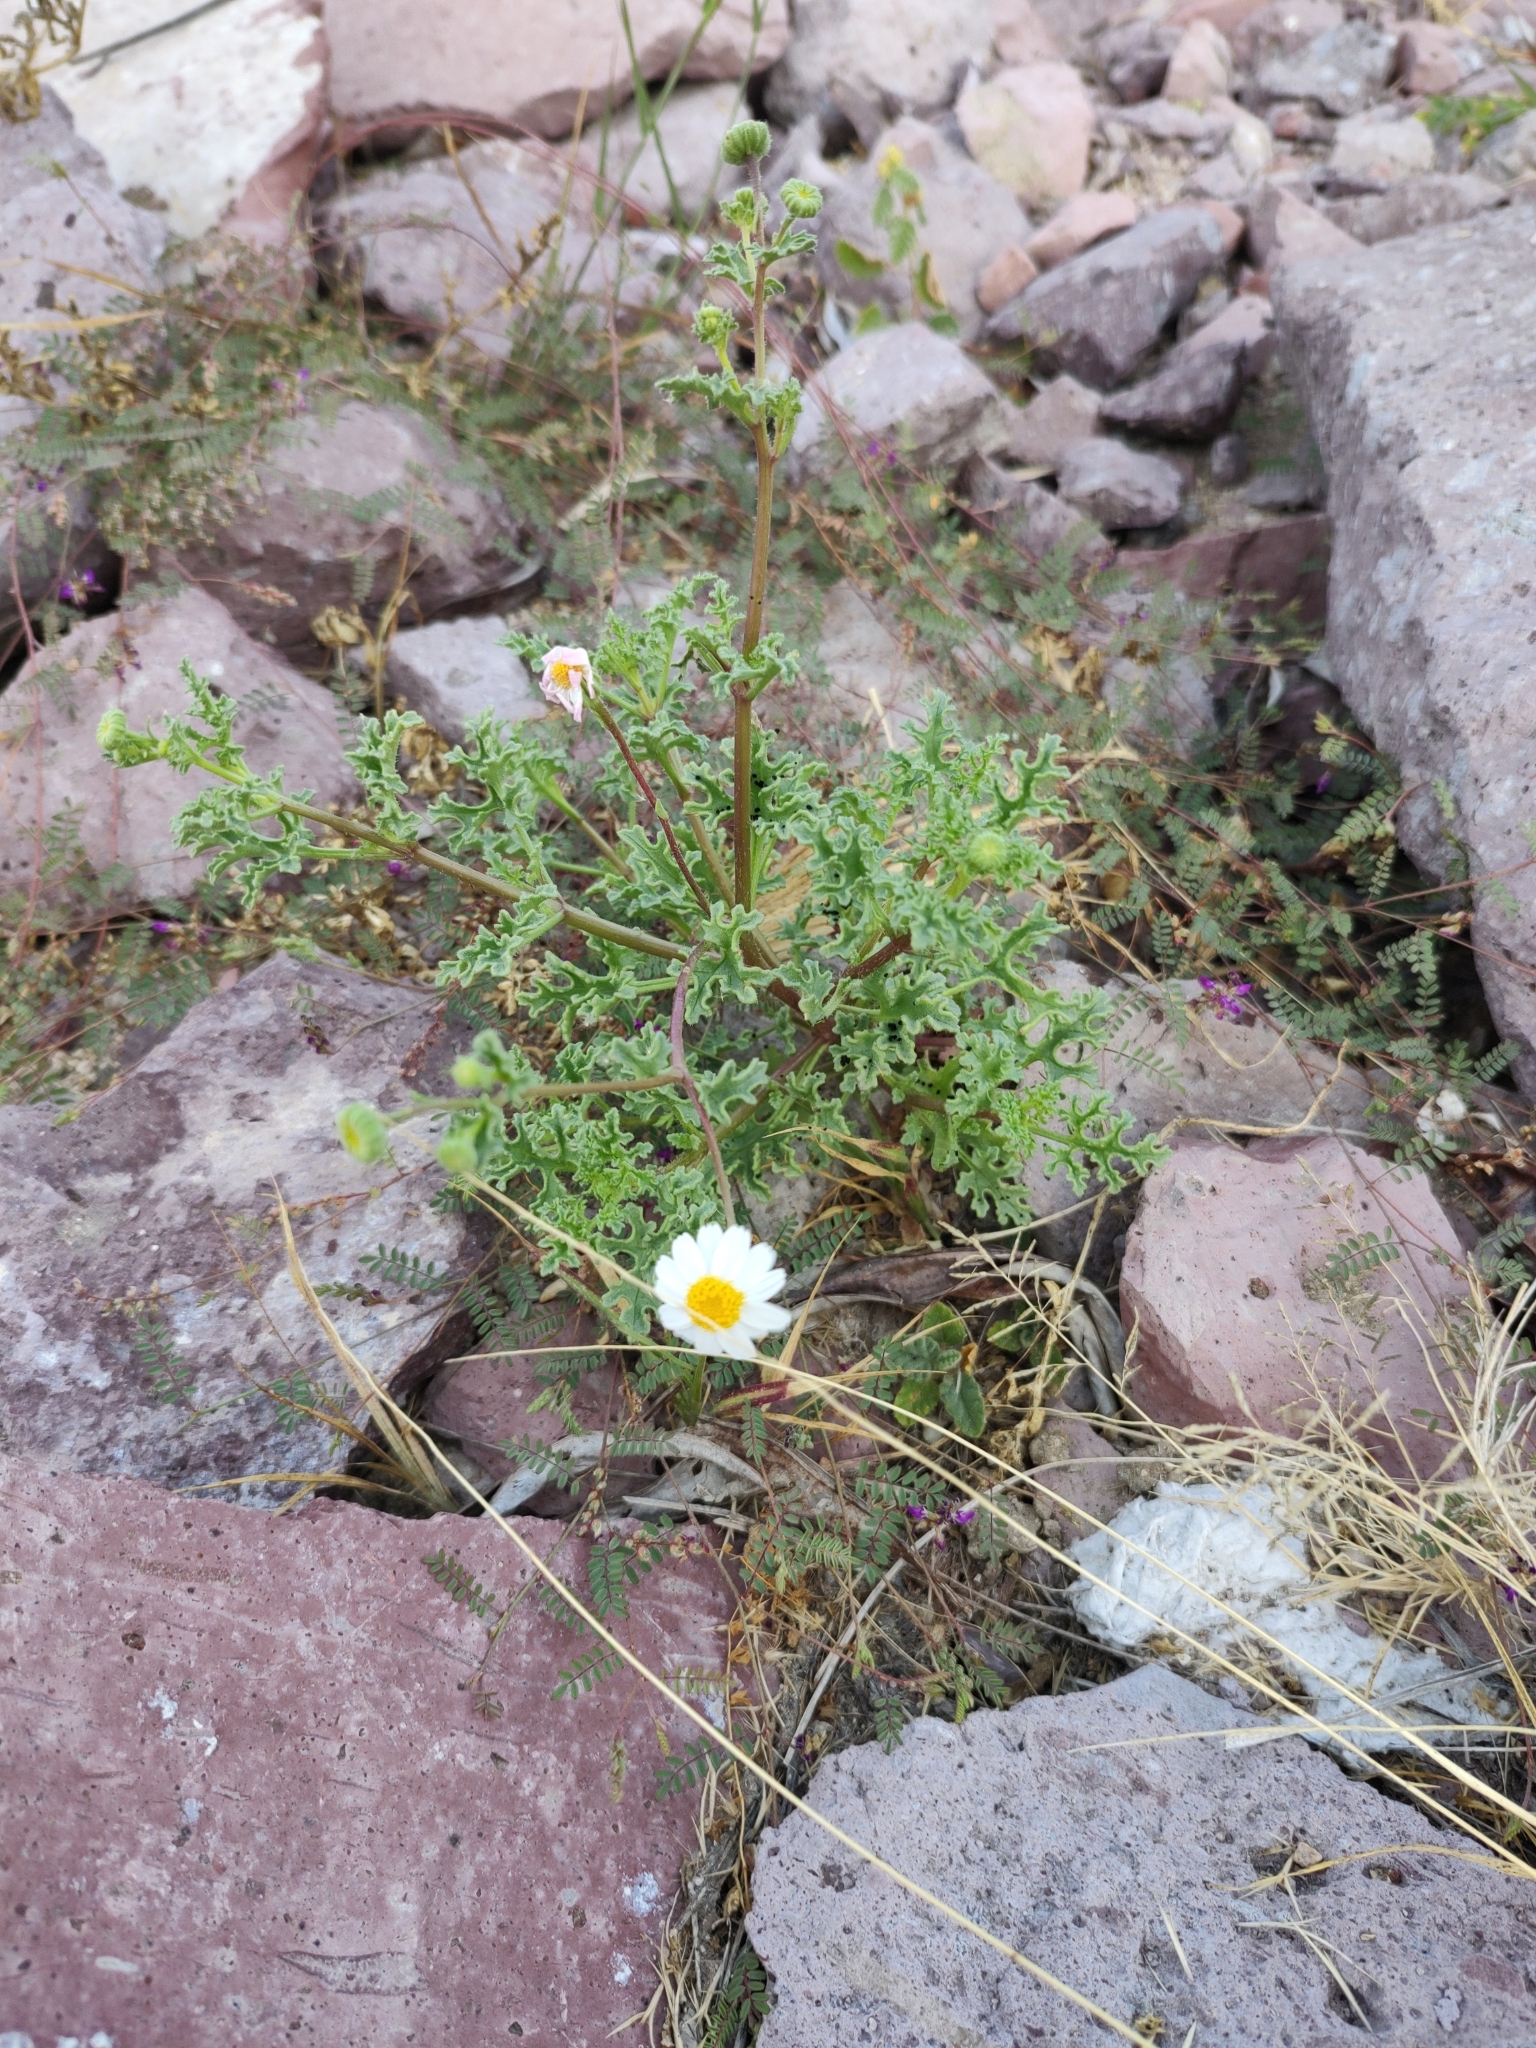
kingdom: Plantae
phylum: Tracheophyta
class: Magnoliopsida
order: Asterales
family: Asteraceae
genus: Perityle
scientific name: Perityle crassifolia
